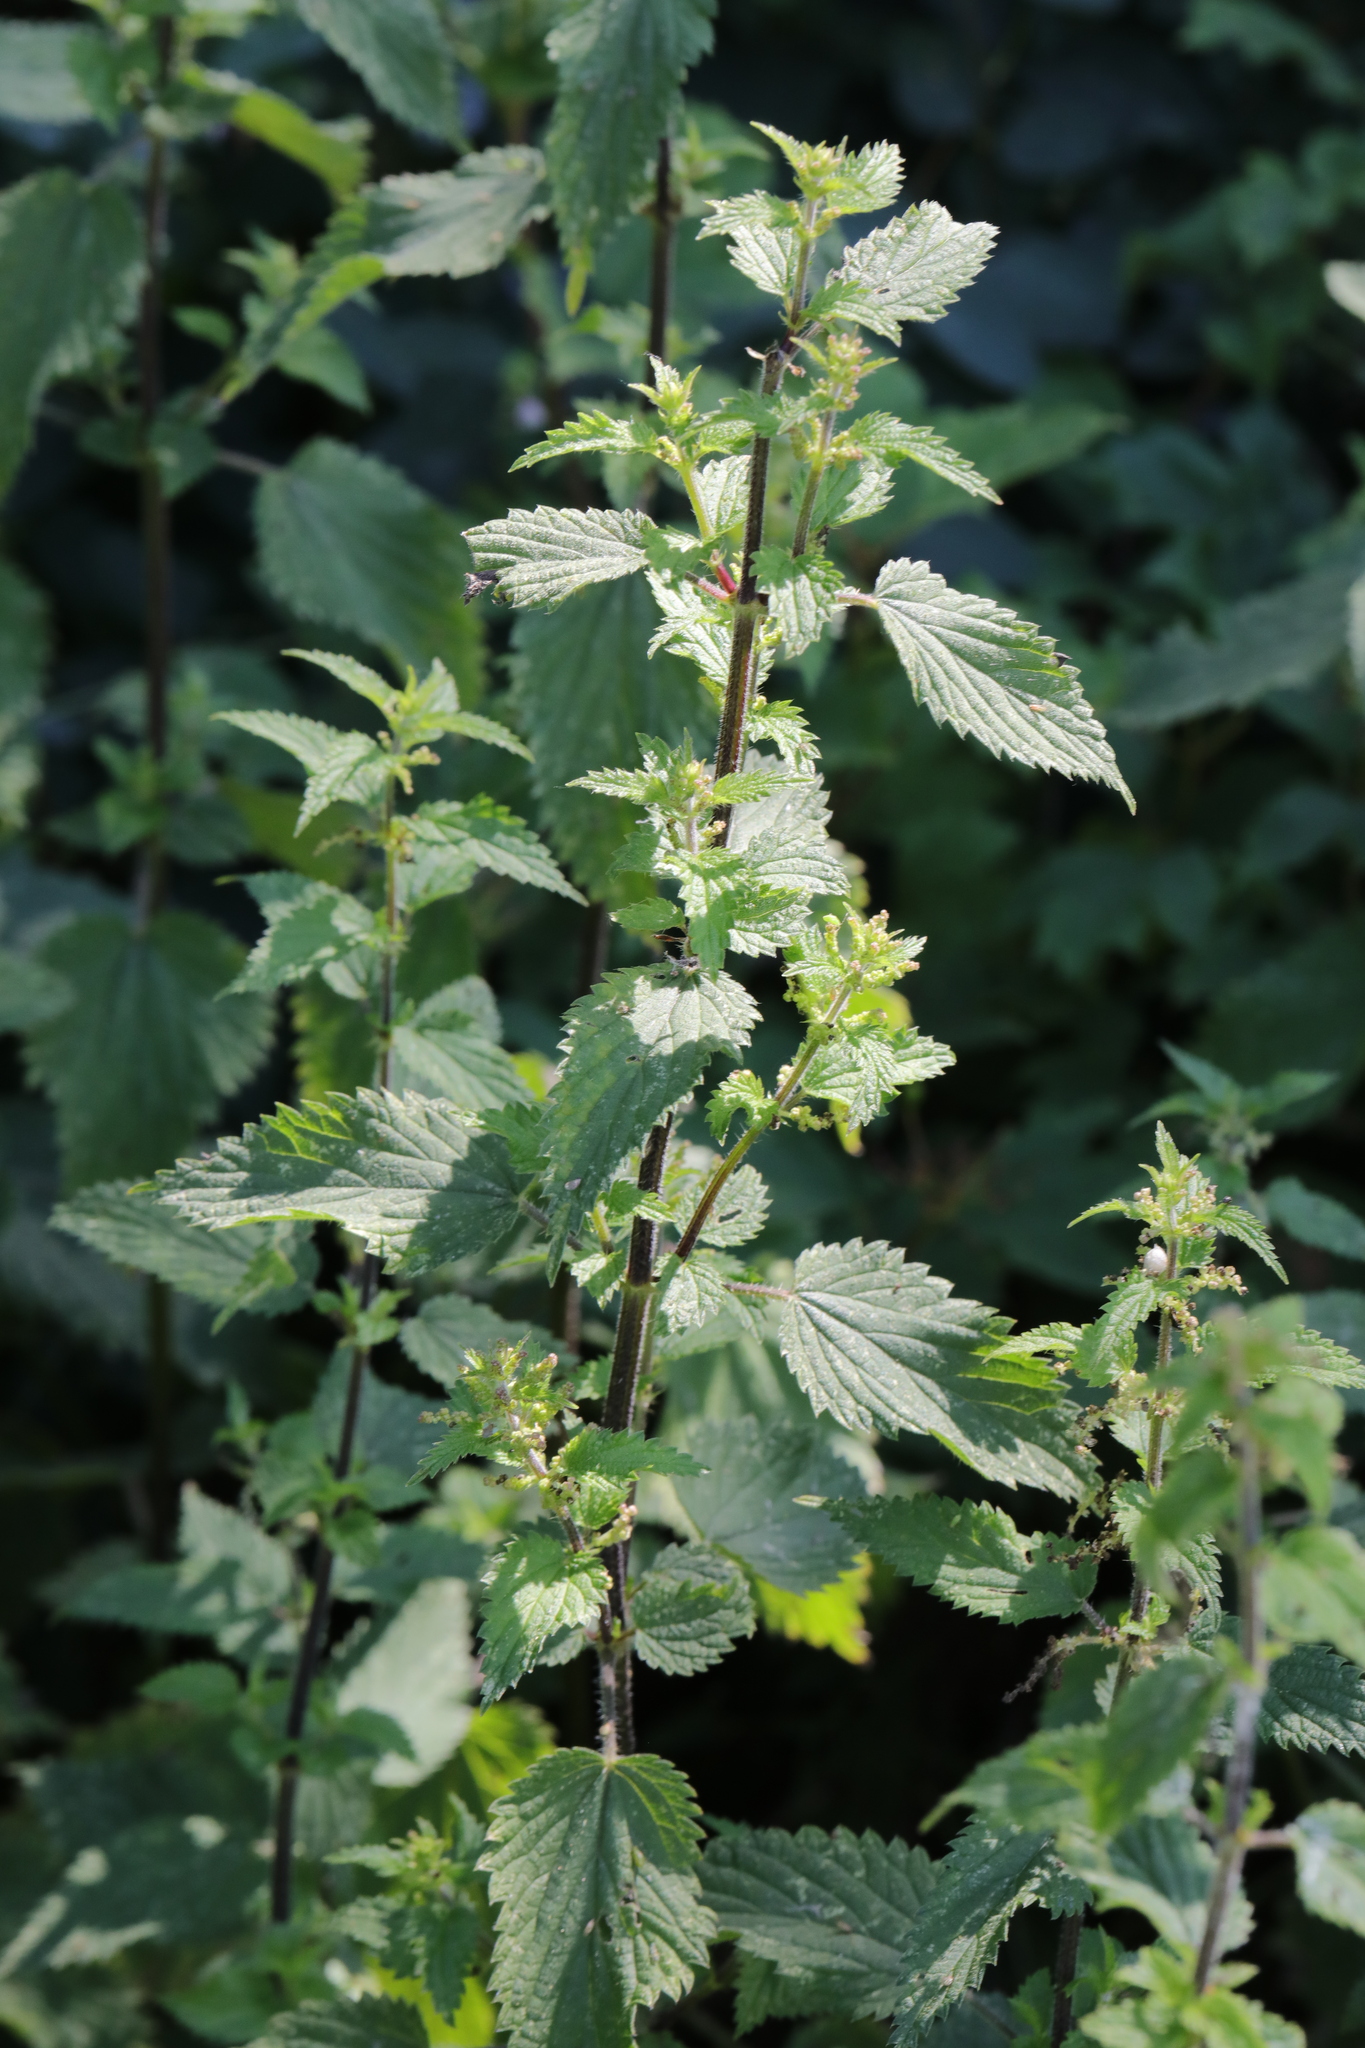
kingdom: Plantae
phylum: Tracheophyta
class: Magnoliopsida
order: Rosales
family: Urticaceae
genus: Urtica
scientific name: Urtica dioica
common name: Common nettle
